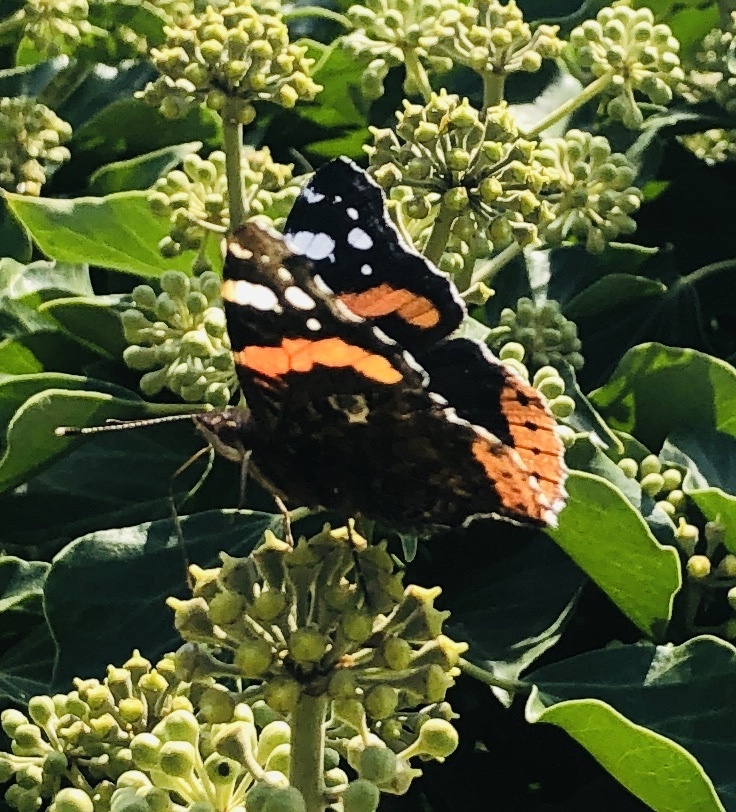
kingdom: Animalia
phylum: Arthropoda
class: Insecta
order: Lepidoptera
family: Nymphalidae
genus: Vanessa
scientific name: Vanessa atalanta
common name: Red admiral
